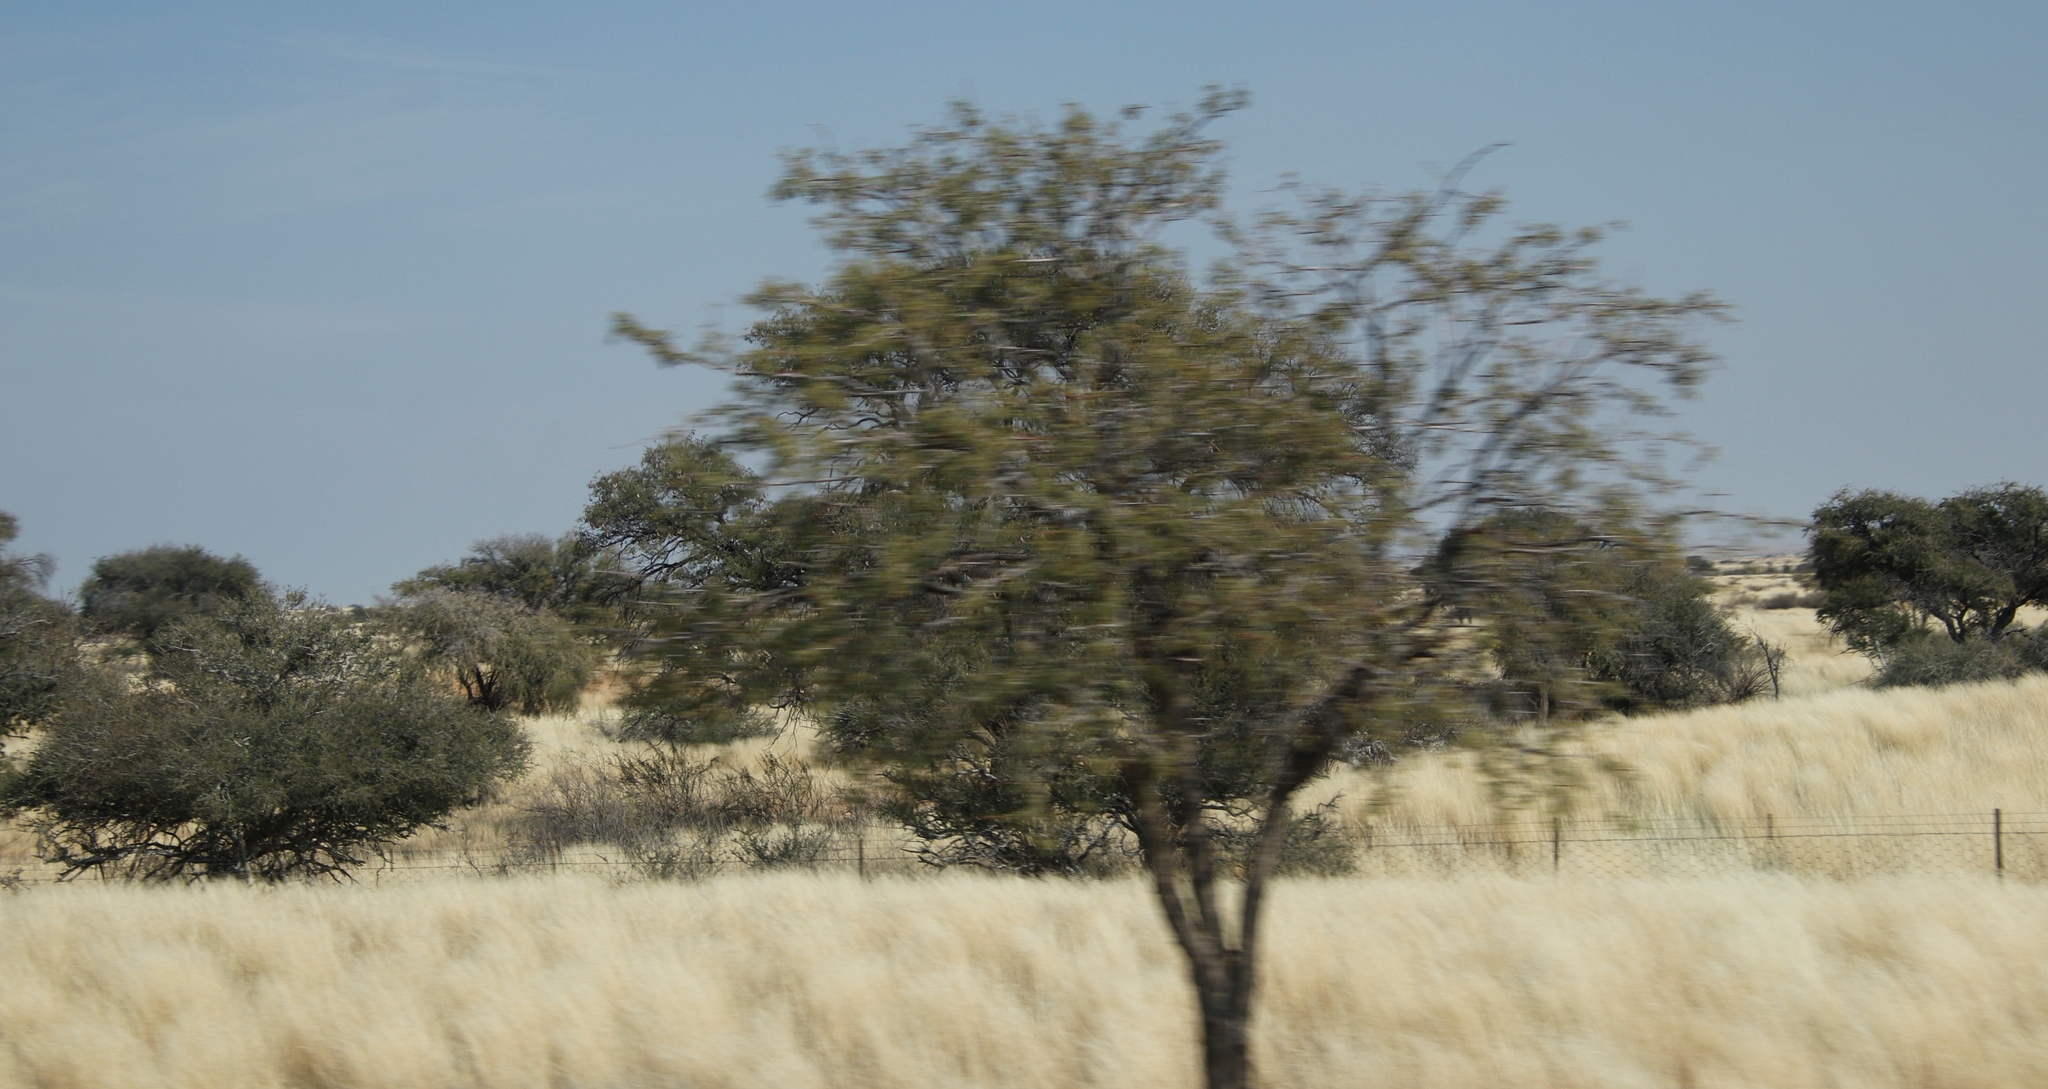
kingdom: Plantae
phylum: Tracheophyta
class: Magnoliopsida
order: Fabales
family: Fabaceae
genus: Vachellia
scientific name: Vachellia erioloba
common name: Camel thorn
